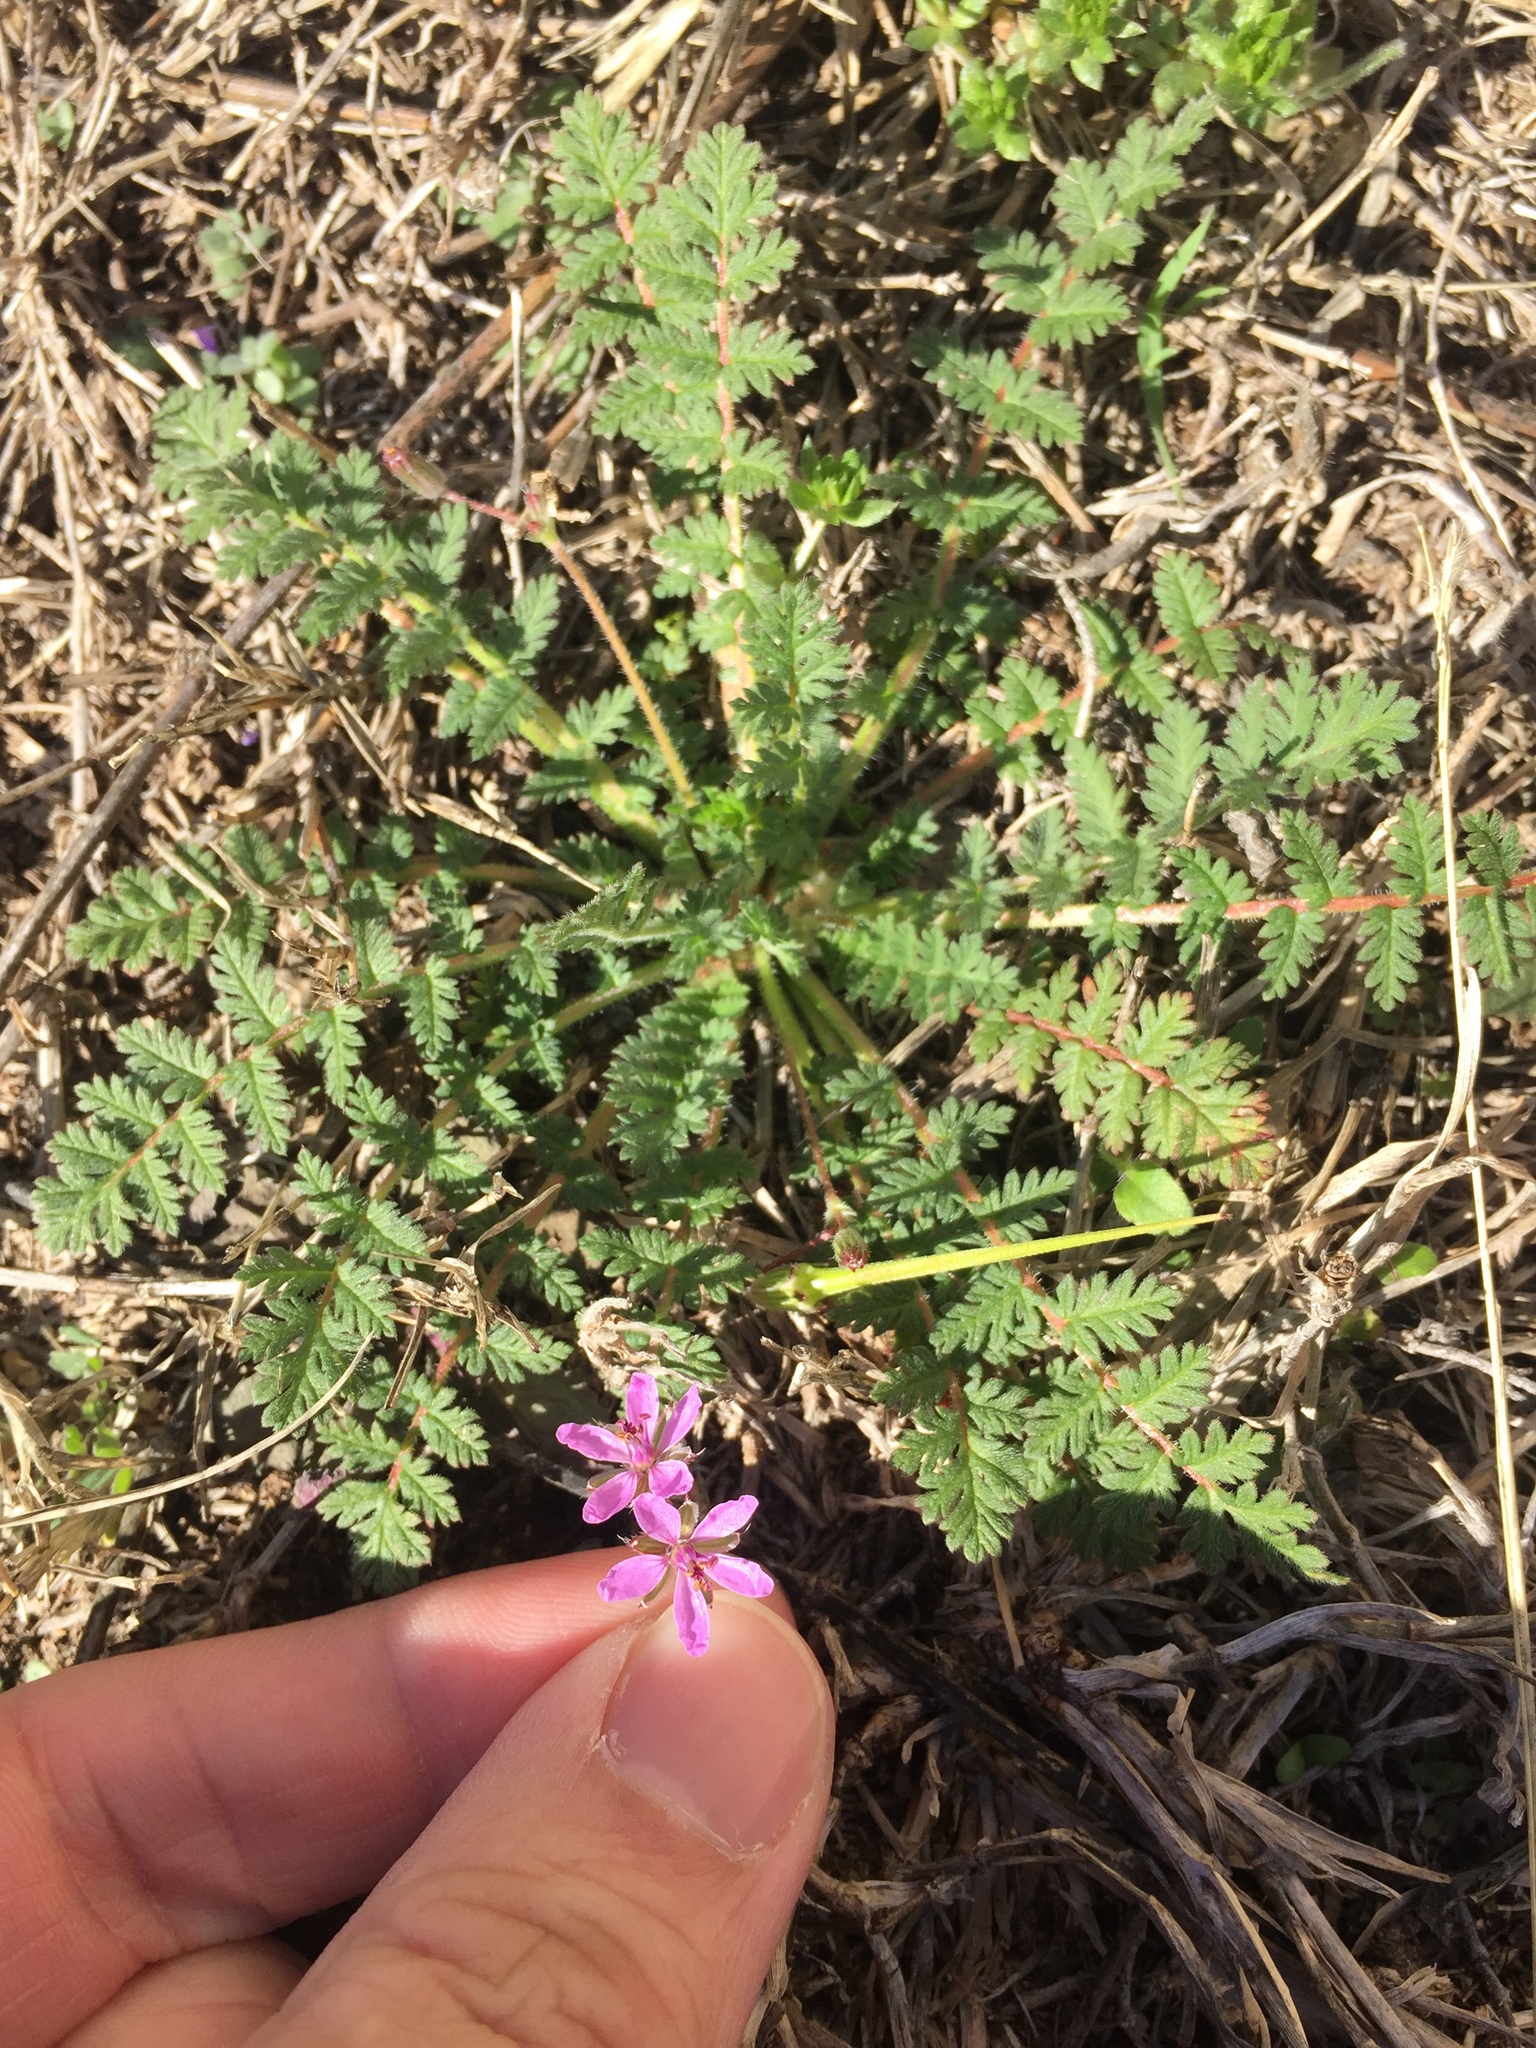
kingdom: Plantae
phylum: Tracheophyta
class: Magnoliopsida
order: Geraniales
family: Geraniaceae
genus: Erodium
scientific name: Erodium cicutarium
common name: Common stork's-bill
